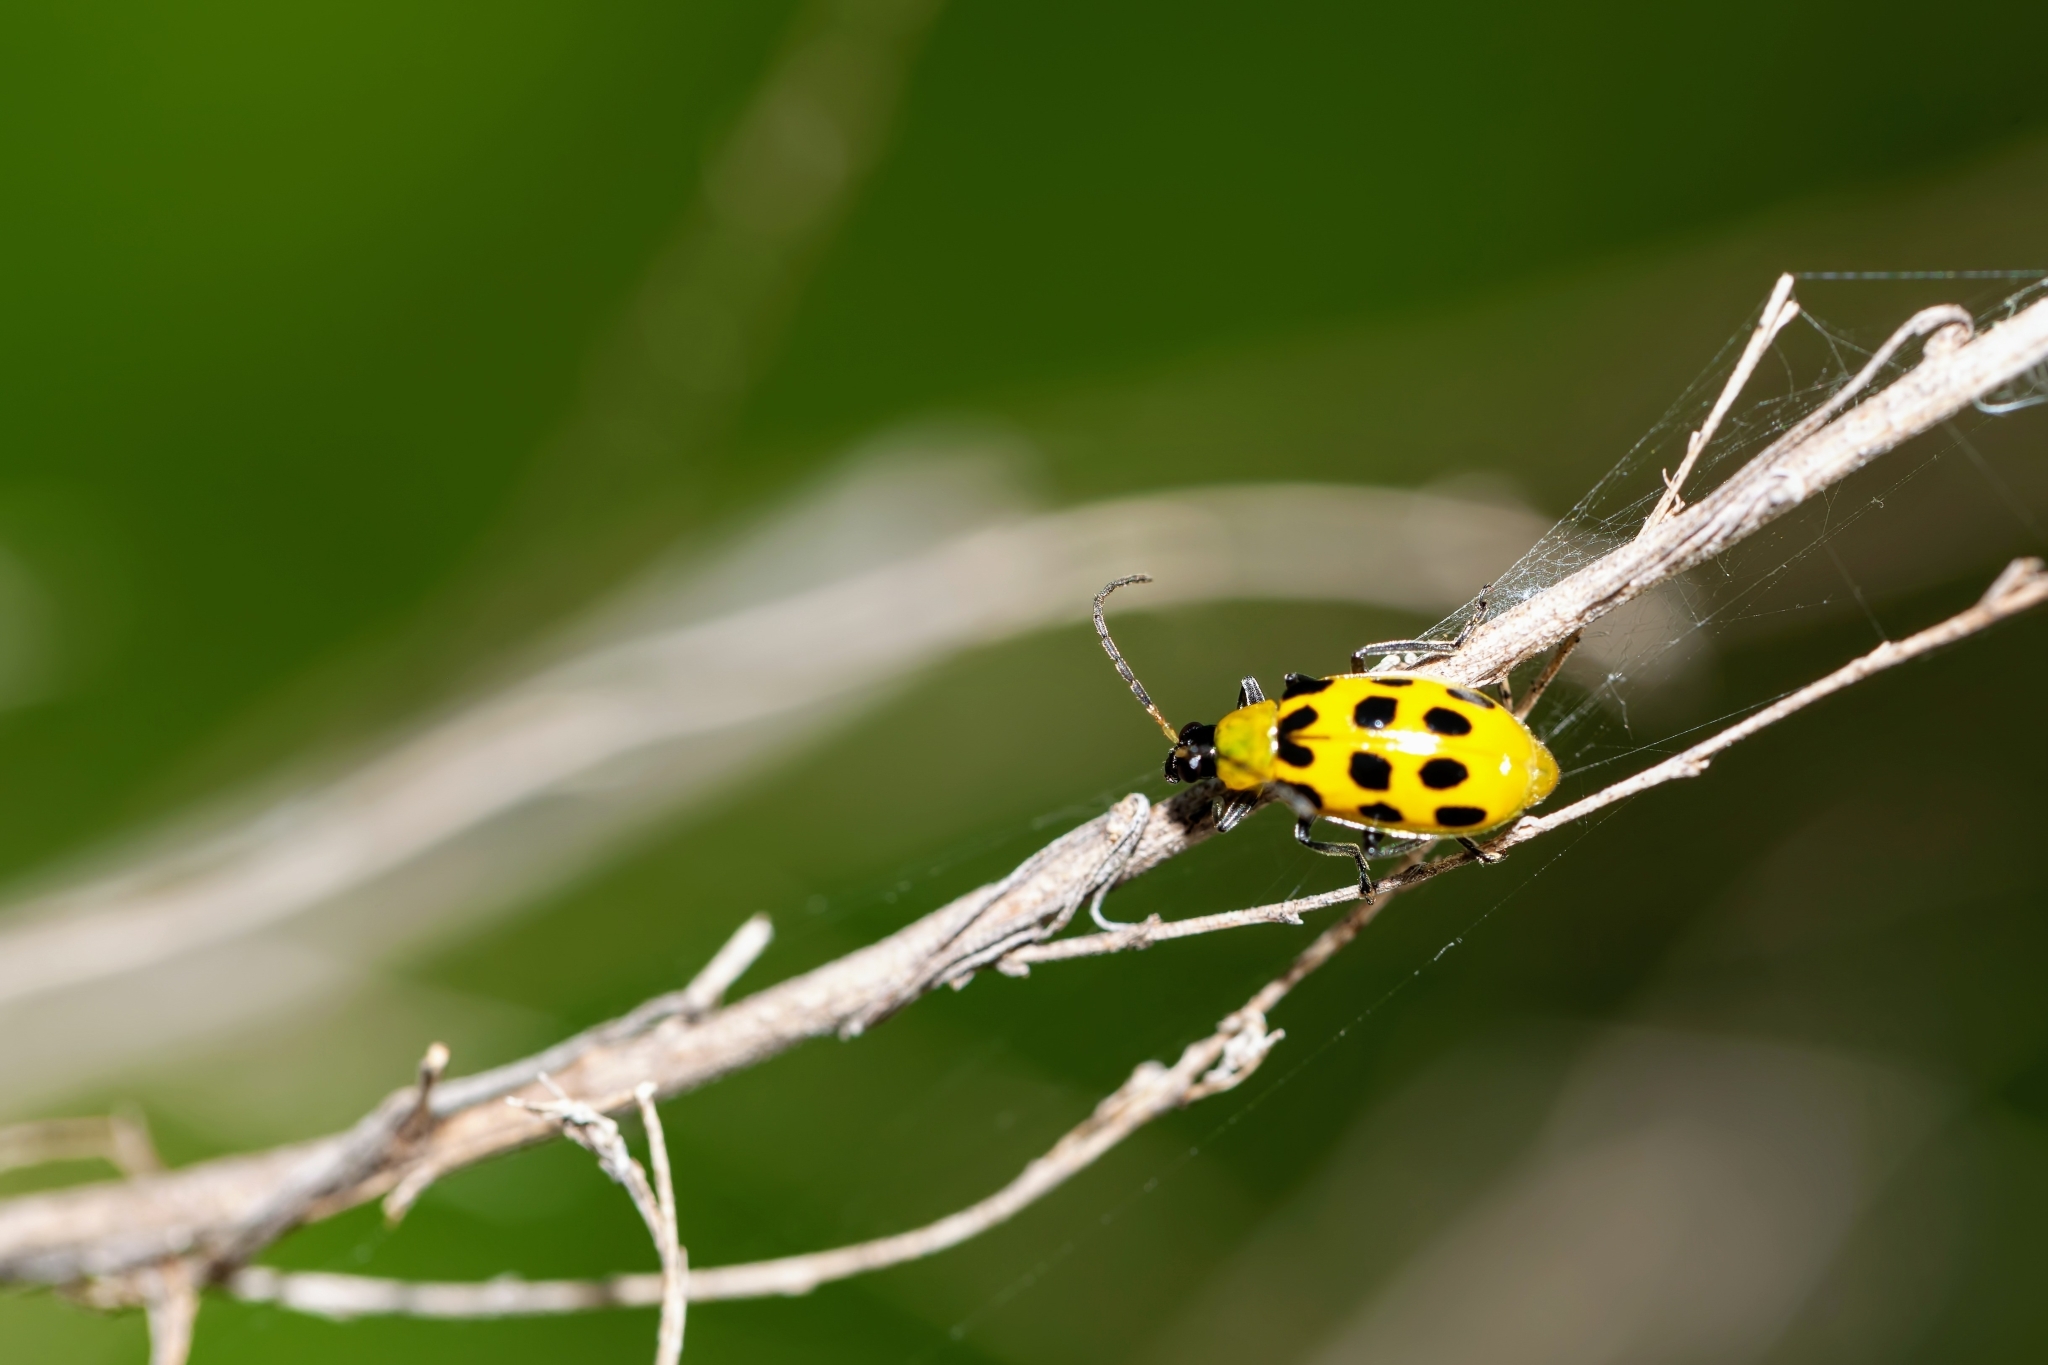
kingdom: Animalia
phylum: Arthropoda
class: Insecta
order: Coleoptera
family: Chrysomelidae
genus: Diabrotica
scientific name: Diabrotica undecimpunctata
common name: Spotted cucumber beetle
